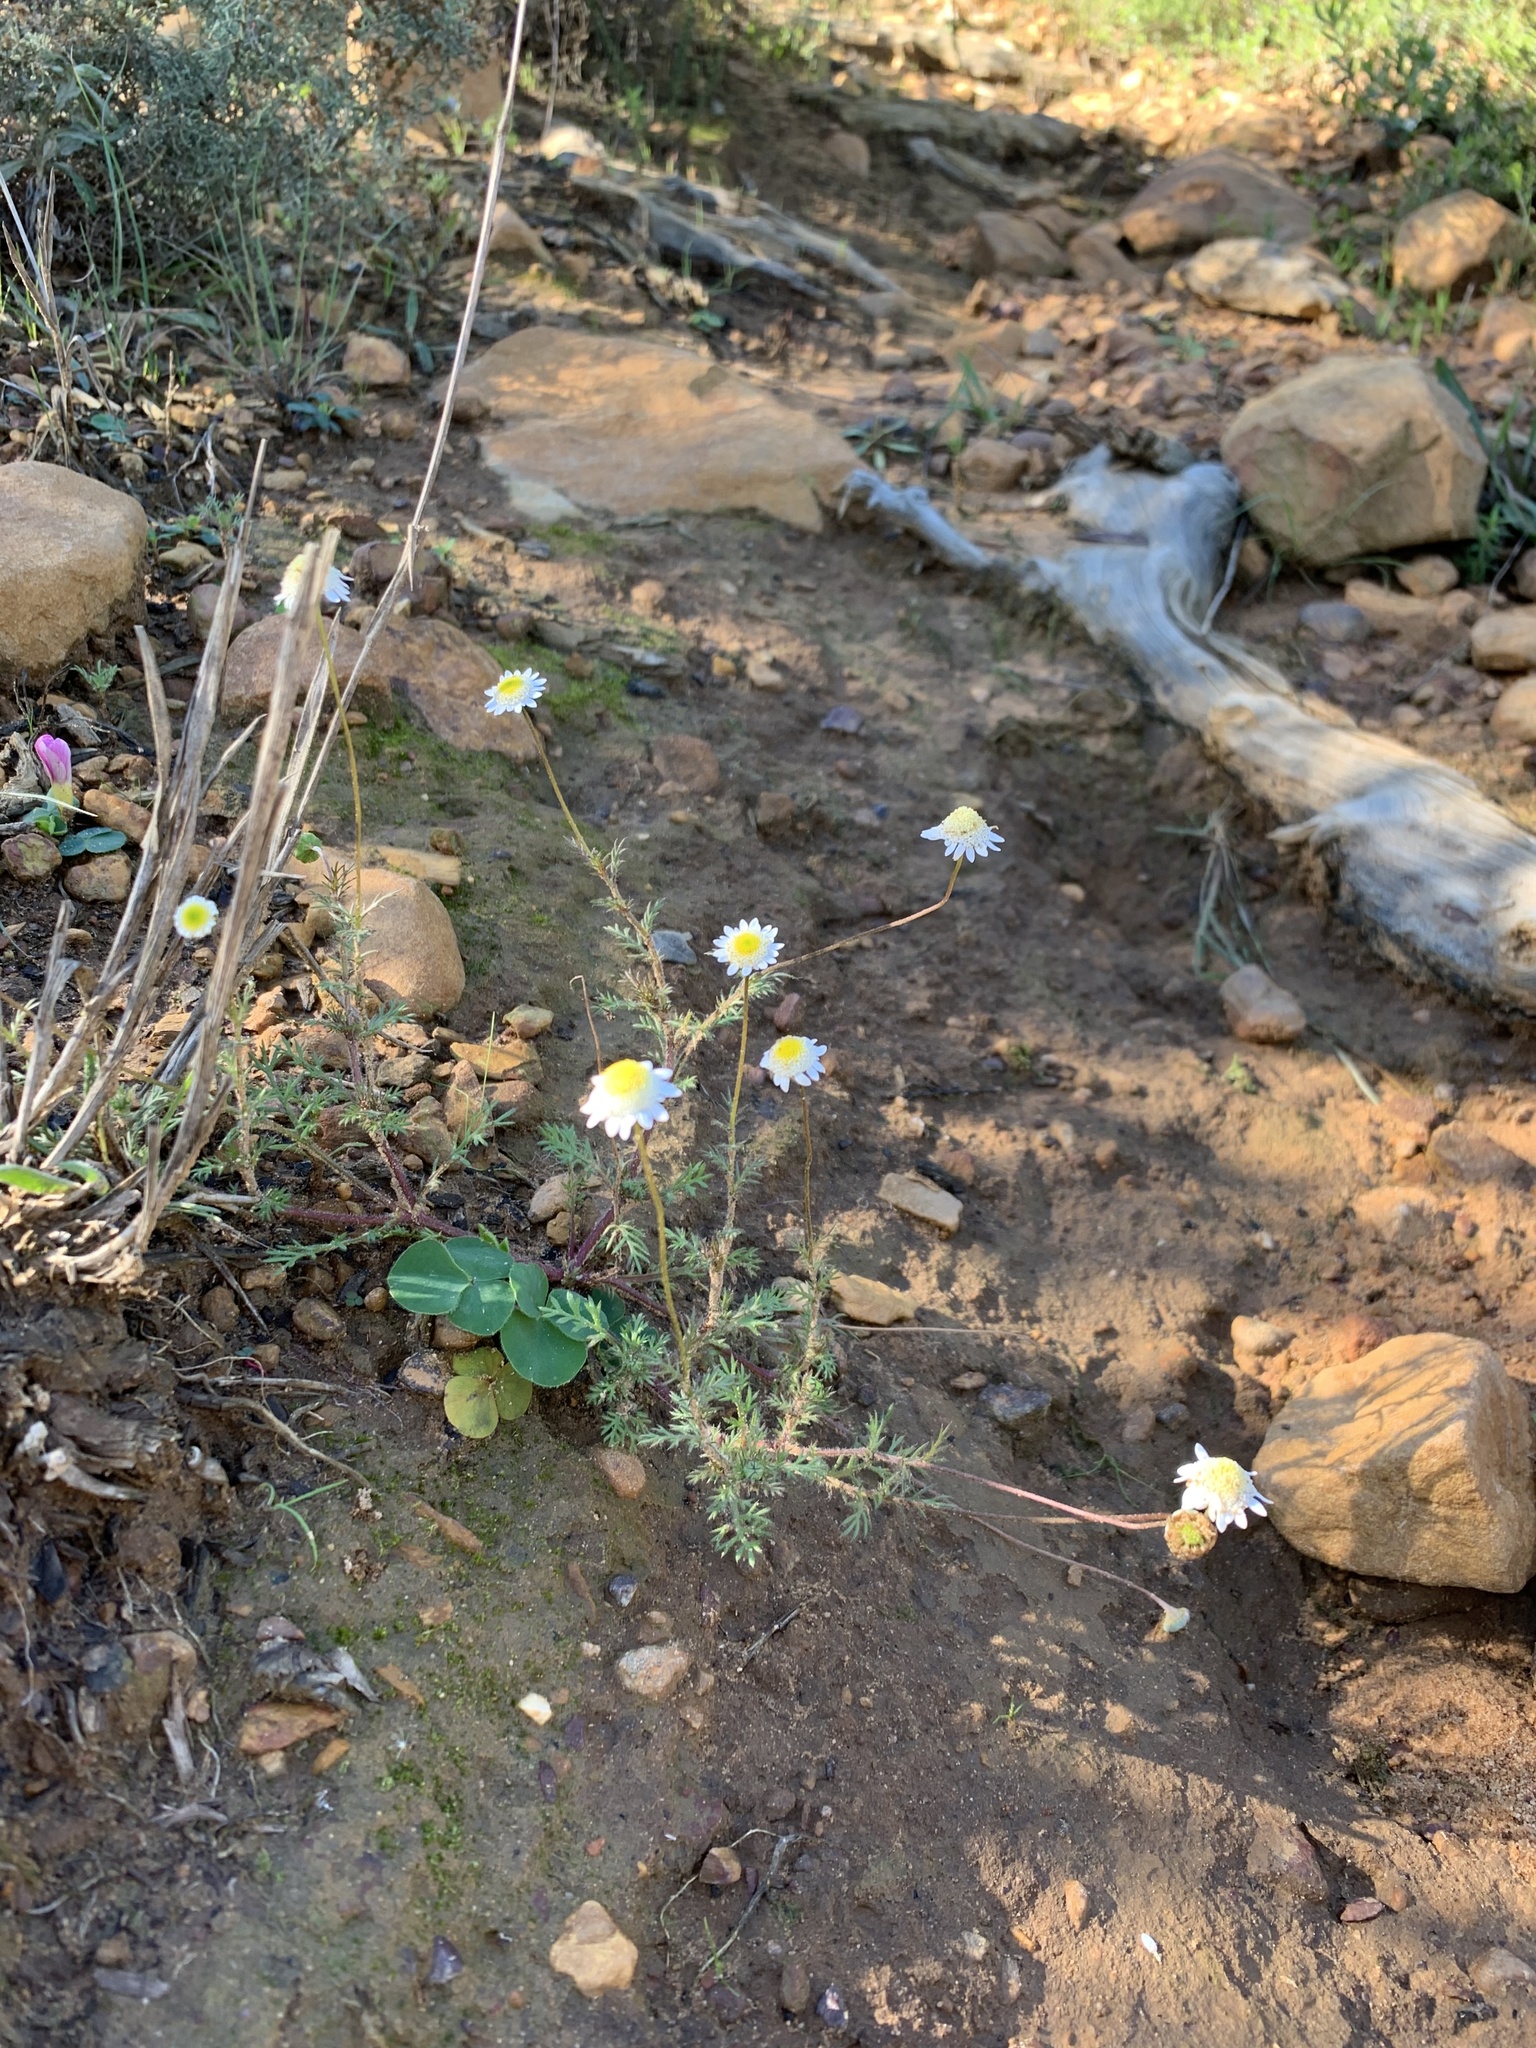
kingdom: Plantae
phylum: Tracheophyta
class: Magnoliopsida
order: Asterales
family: Asteraceae
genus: Cotula
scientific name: Cotula turbinata
